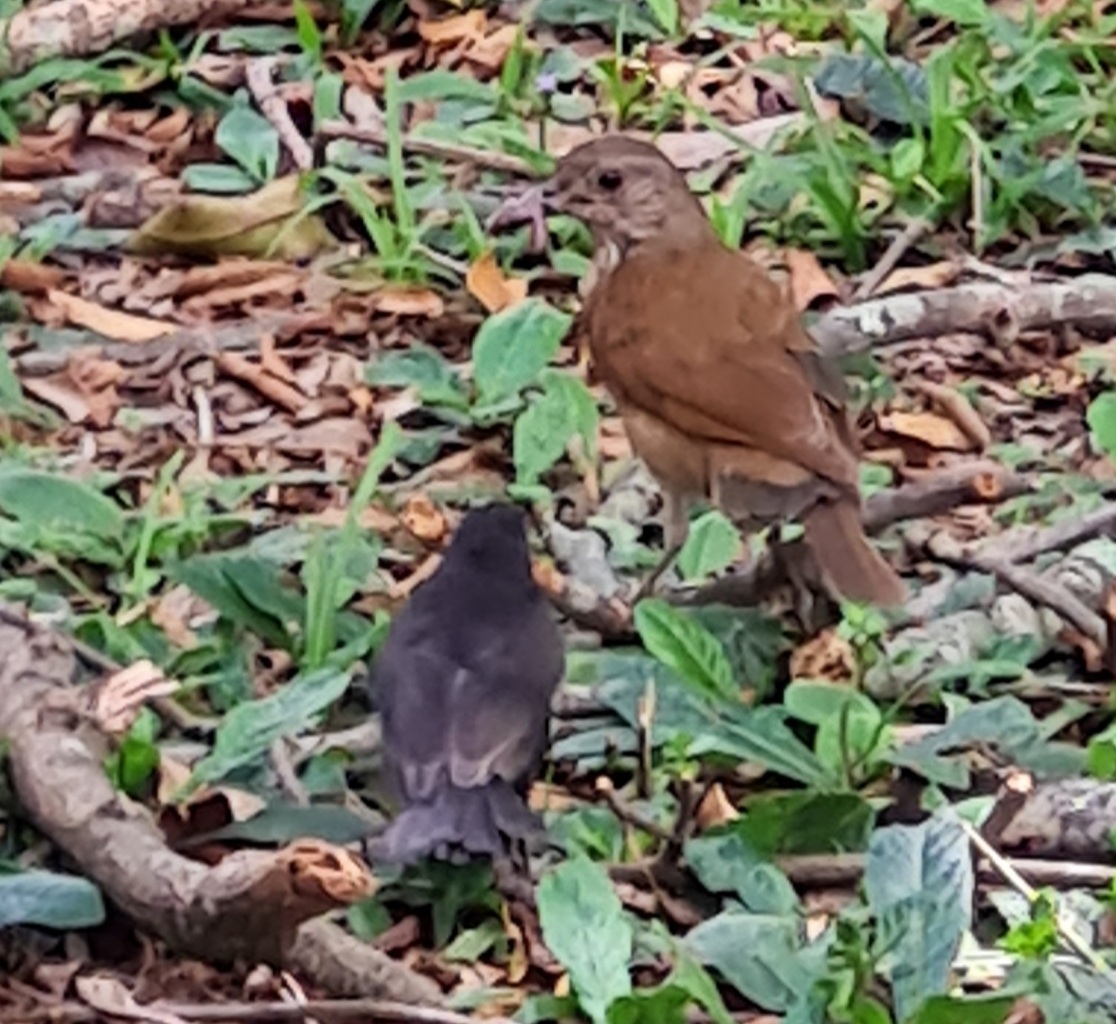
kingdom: Animalia
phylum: Chordata
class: Aves
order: Passeriformes
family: Turdidae
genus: Turdus
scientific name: Turdus leucomelas
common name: Pale-breasted thrush
